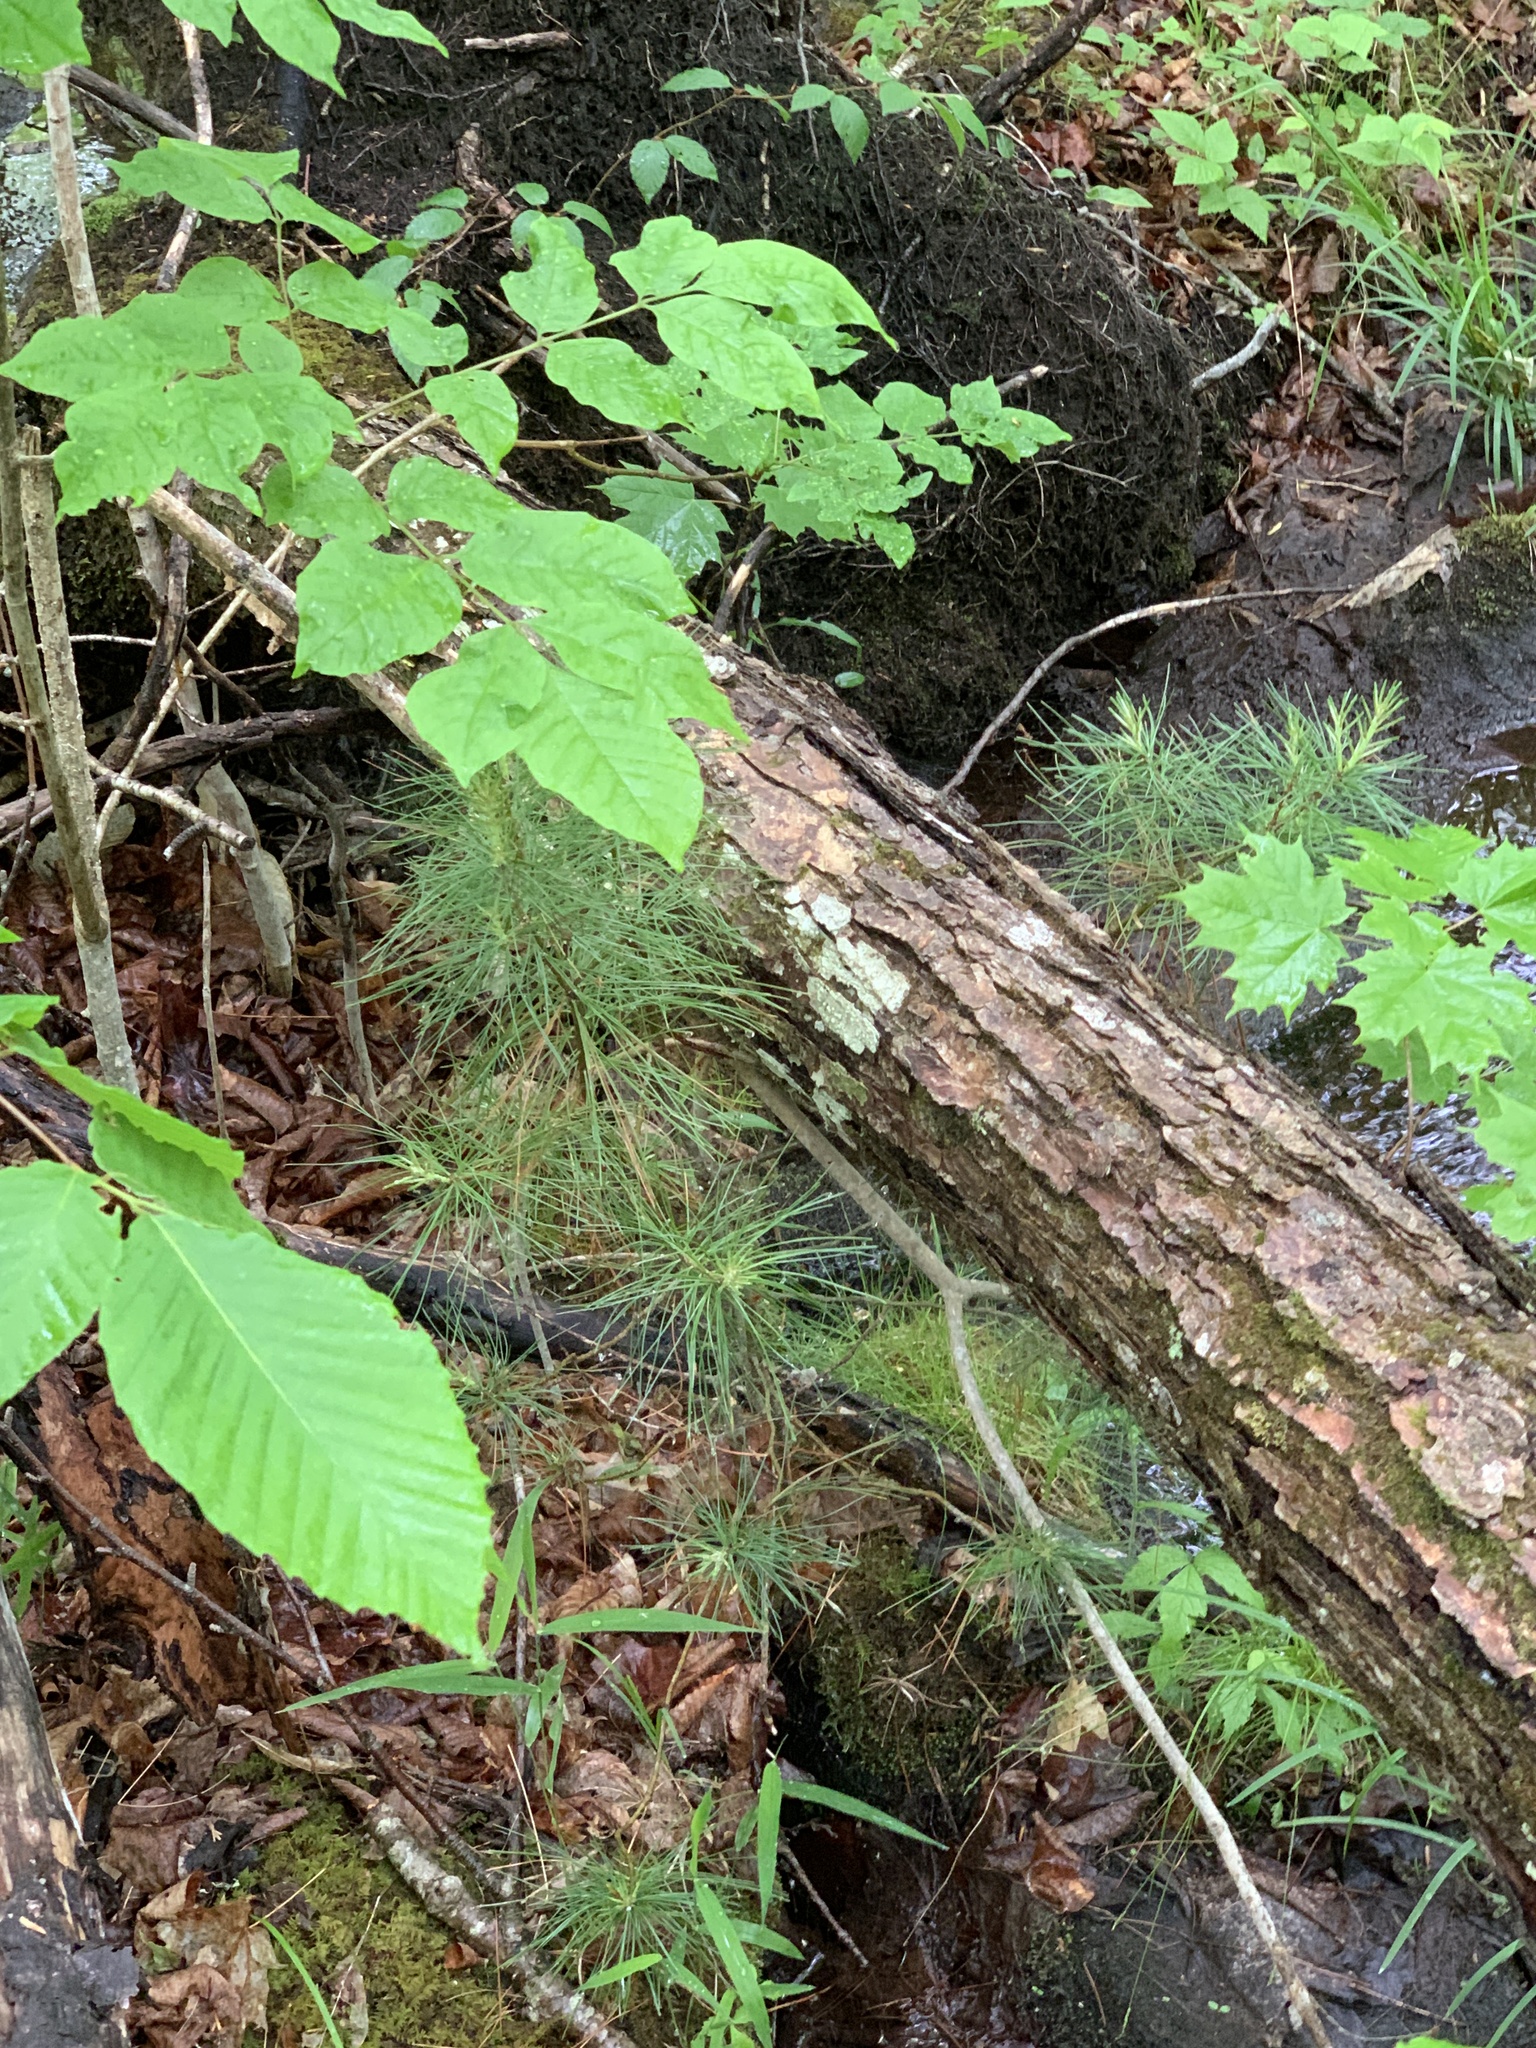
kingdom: Plantae
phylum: Tracheophyta
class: Pinopsida
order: Pinales
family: Pinaceae
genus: Pinus
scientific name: Pinus strobus
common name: Weymouth pine
